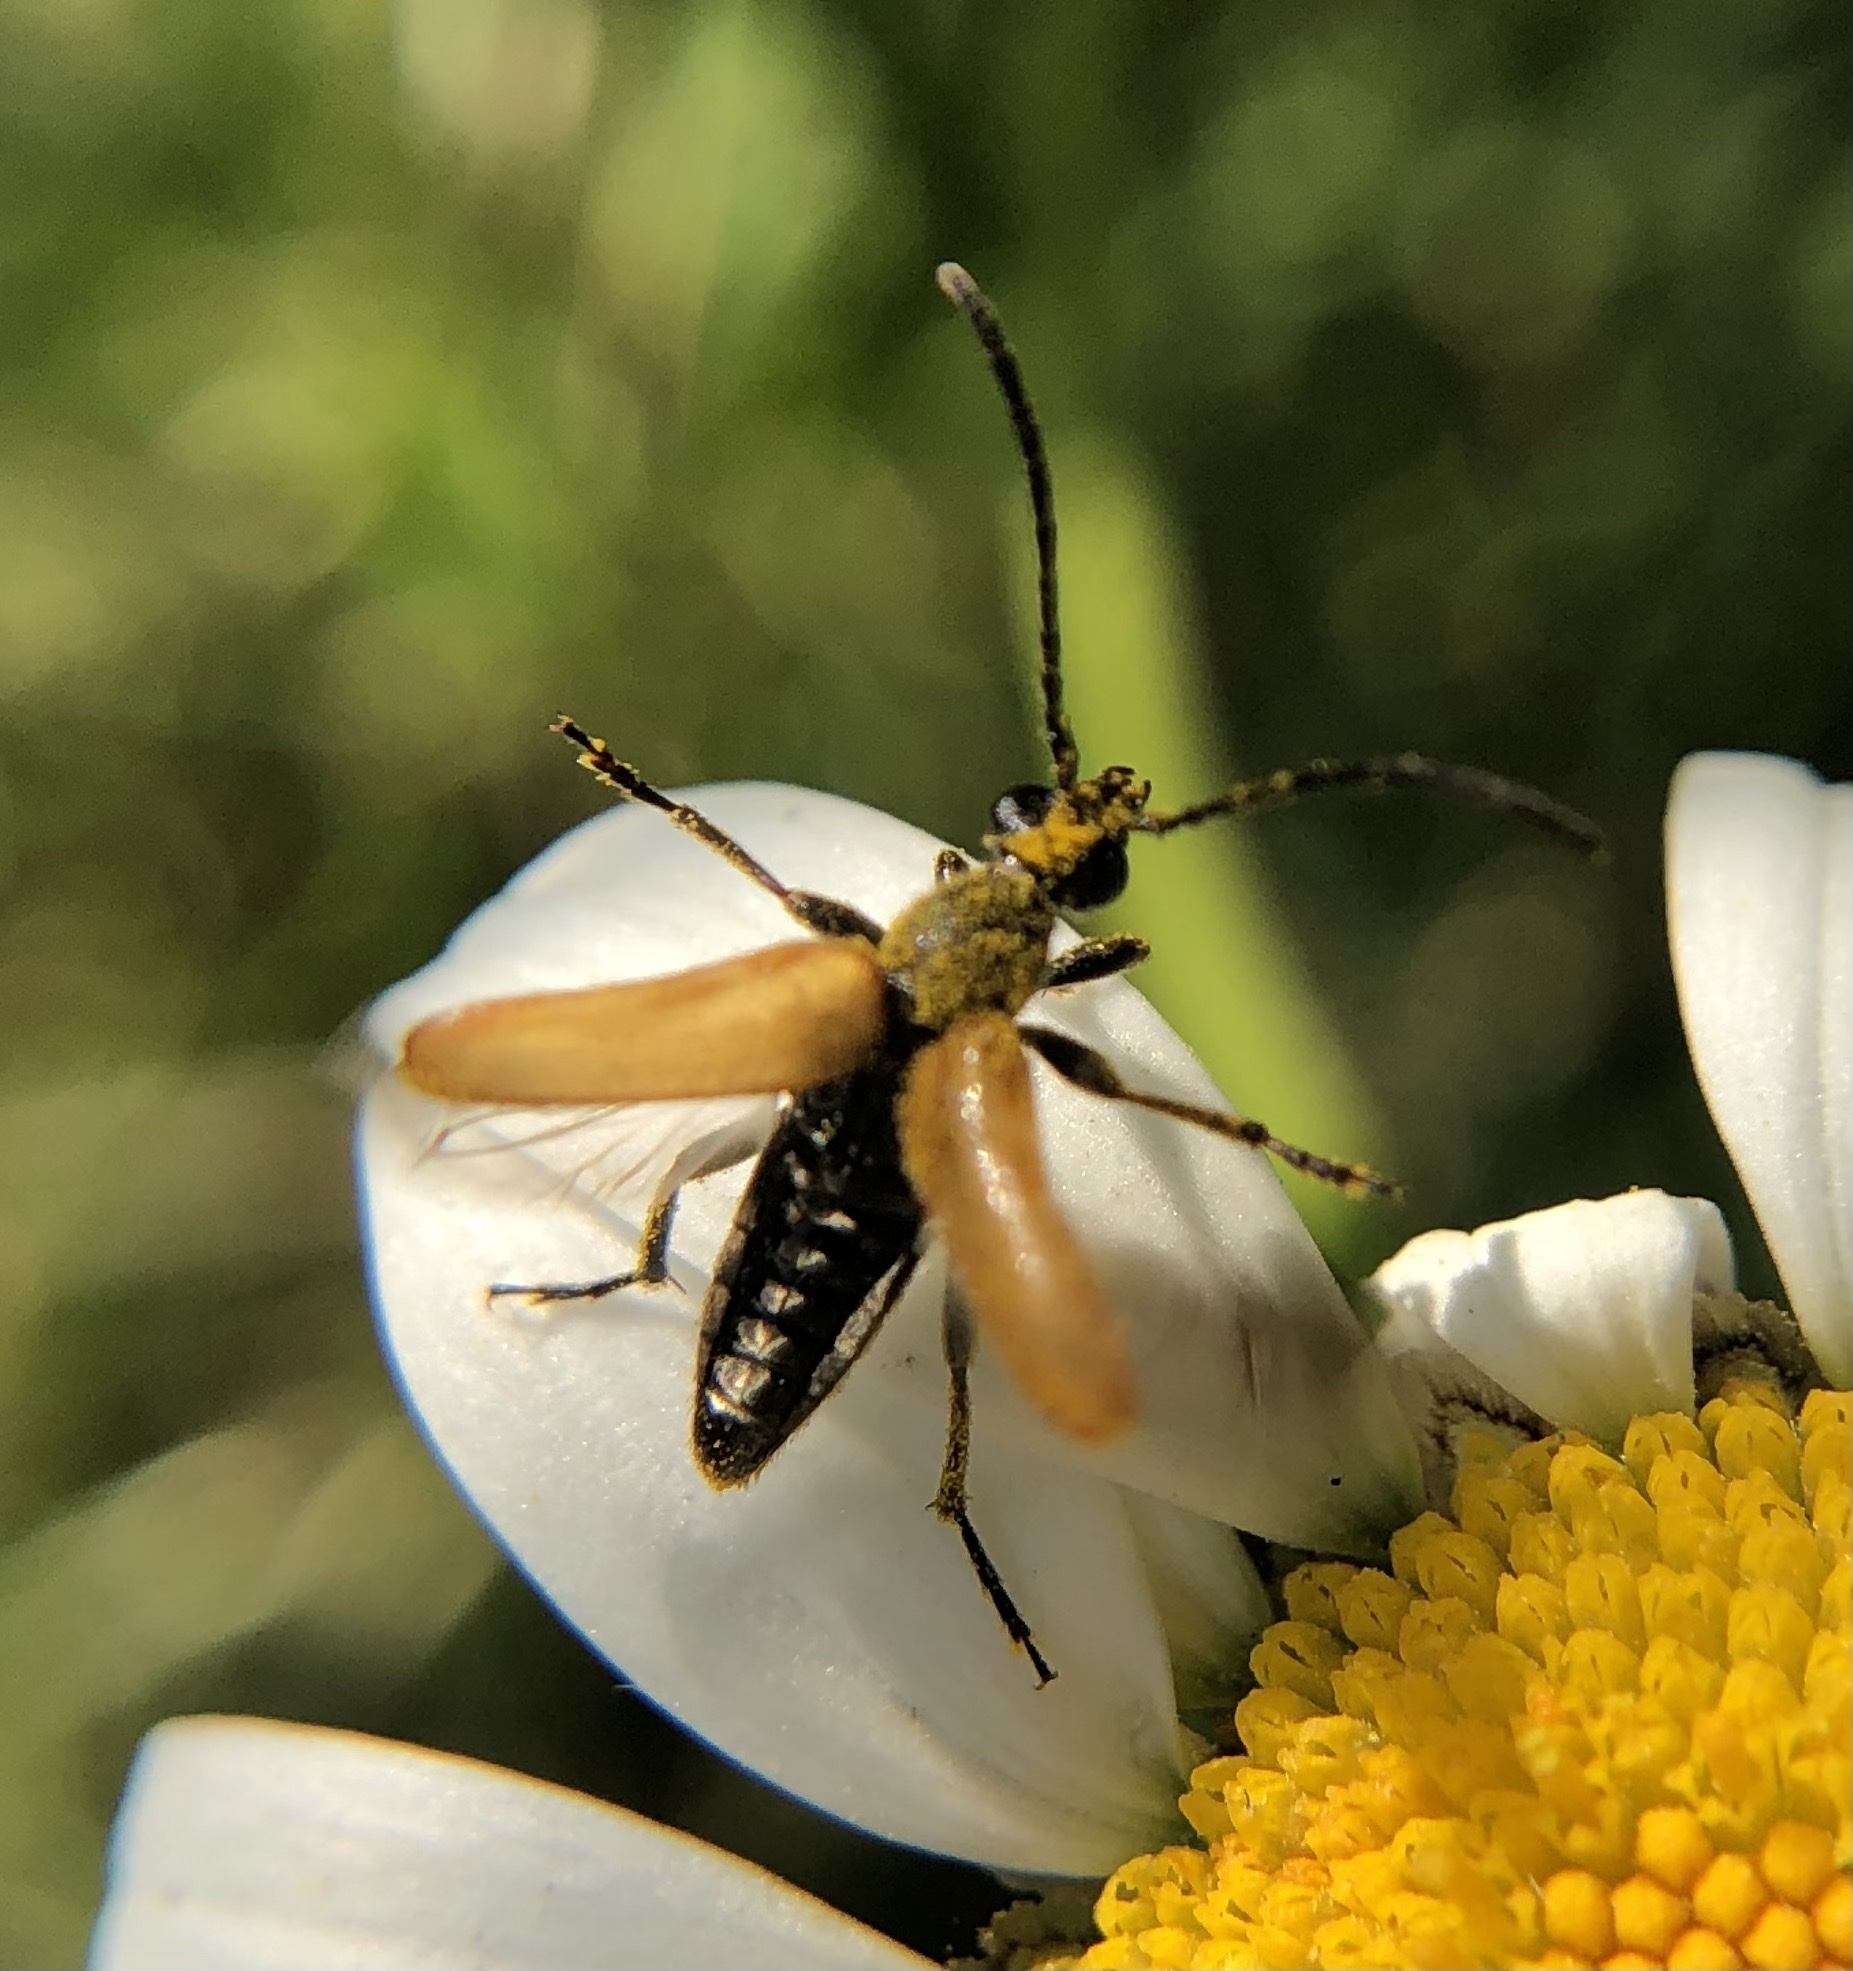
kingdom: Animalia
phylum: Arthropoda
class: Insecta
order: Coleoptera
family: Cerambycidae
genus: Pseudovadonia
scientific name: Pseudovadonia livida
